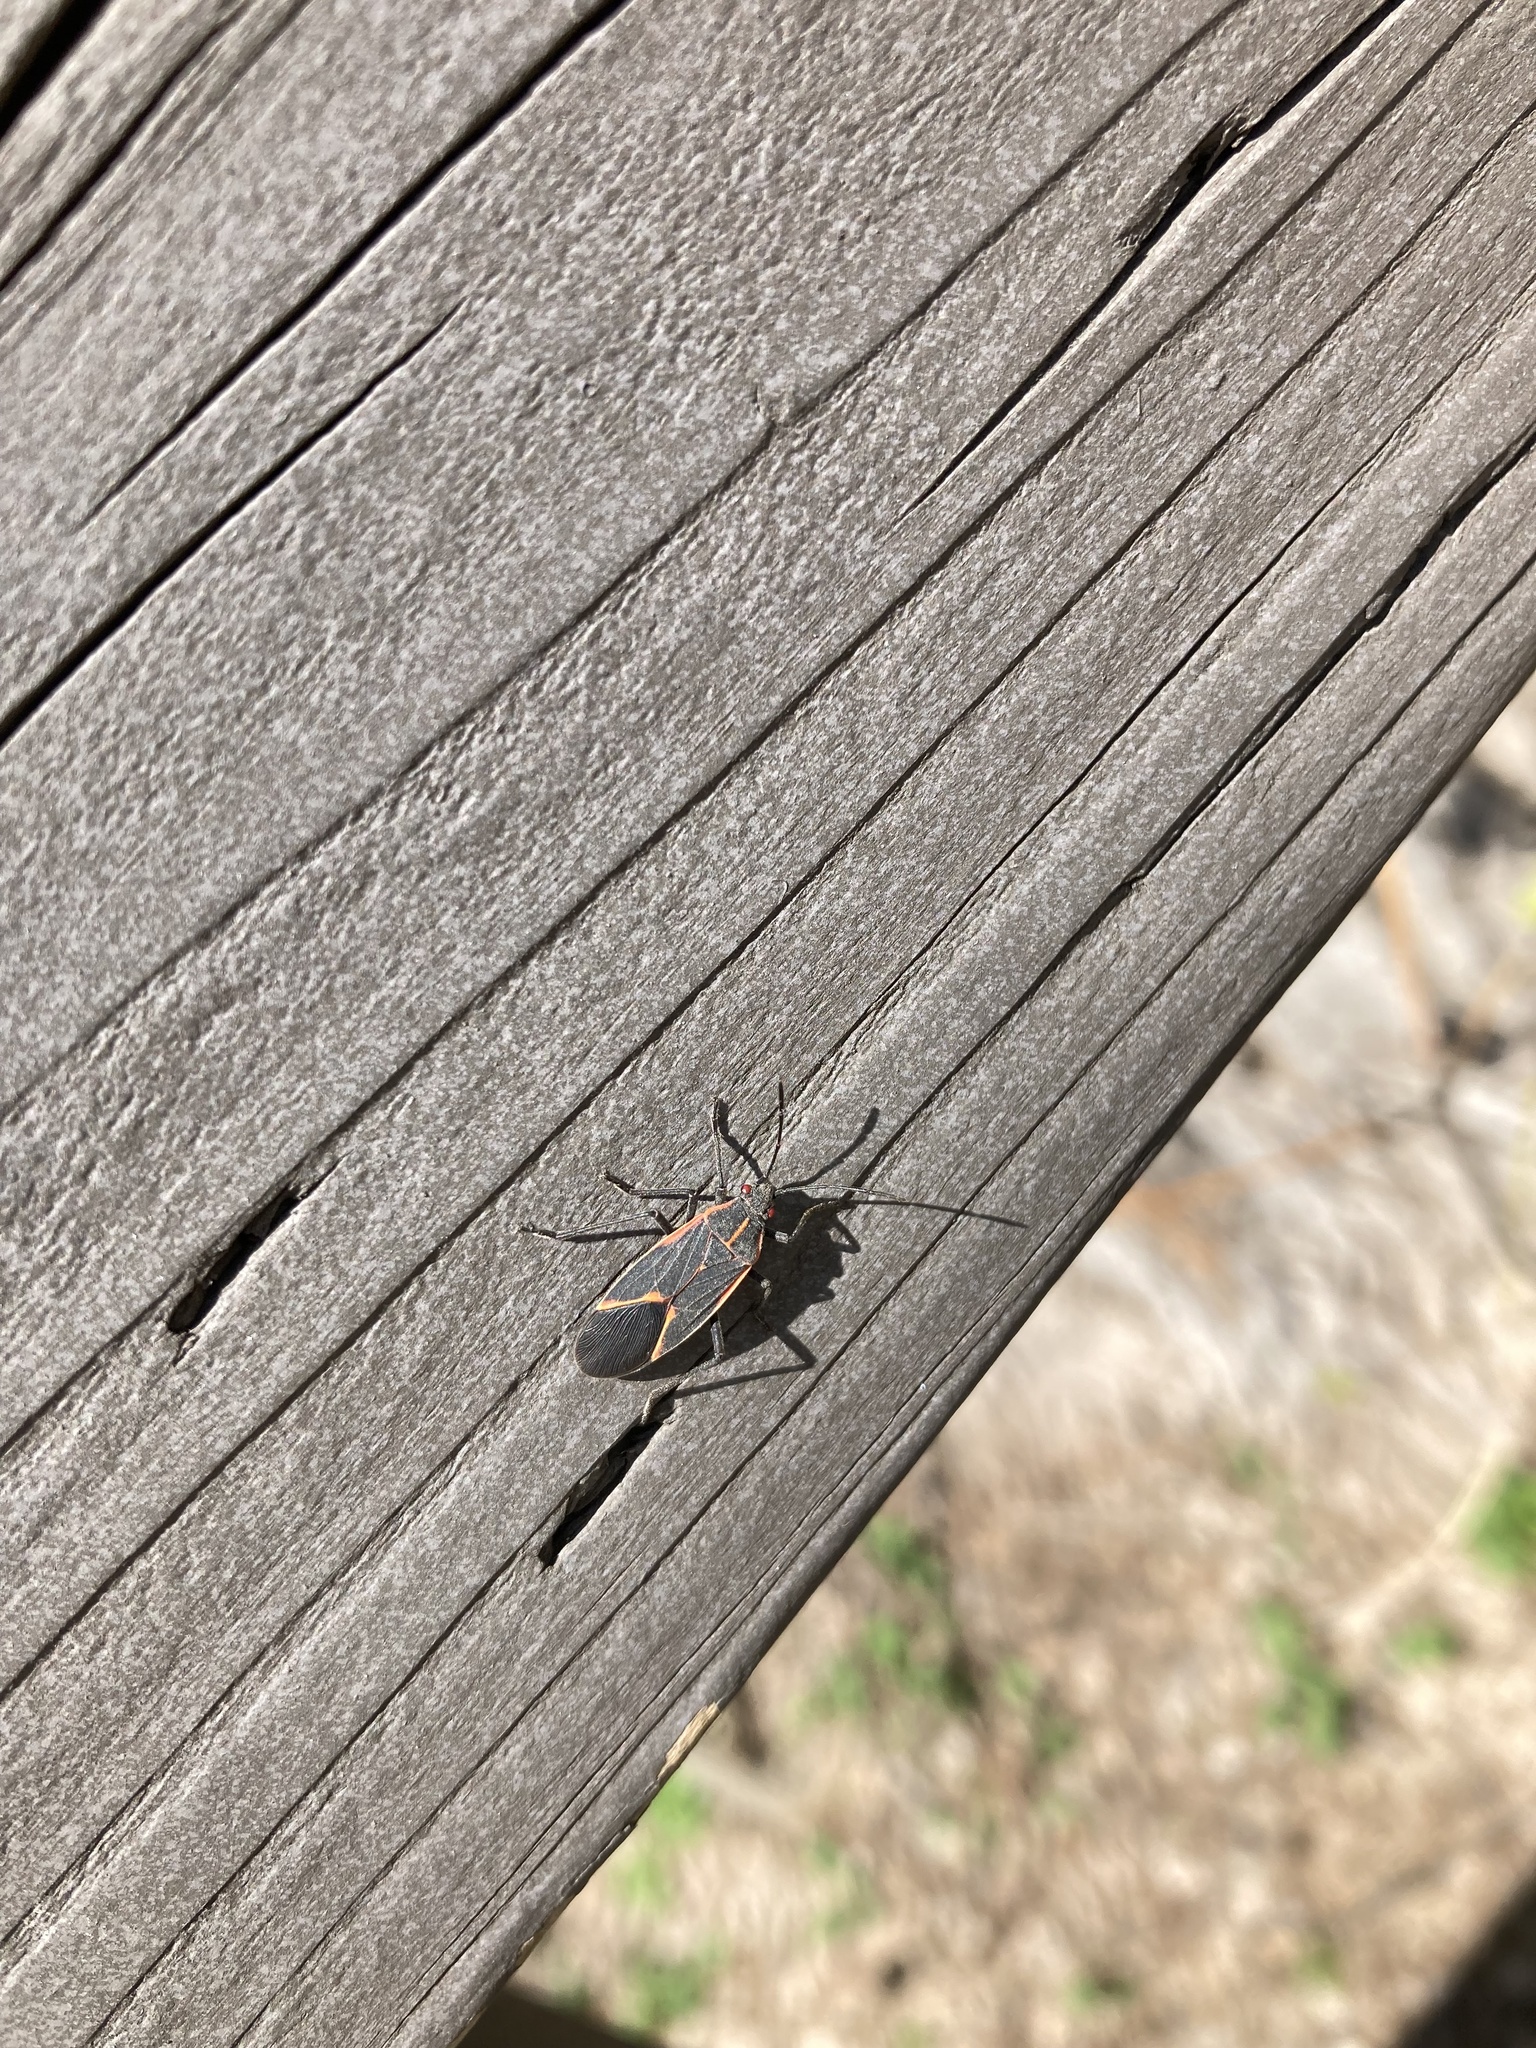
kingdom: Animalia
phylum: Arthropoda
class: Insecta
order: Hemiptera
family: Rhopalidae
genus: Boisea
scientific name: Boisea trivittata
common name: Boxelder bug
